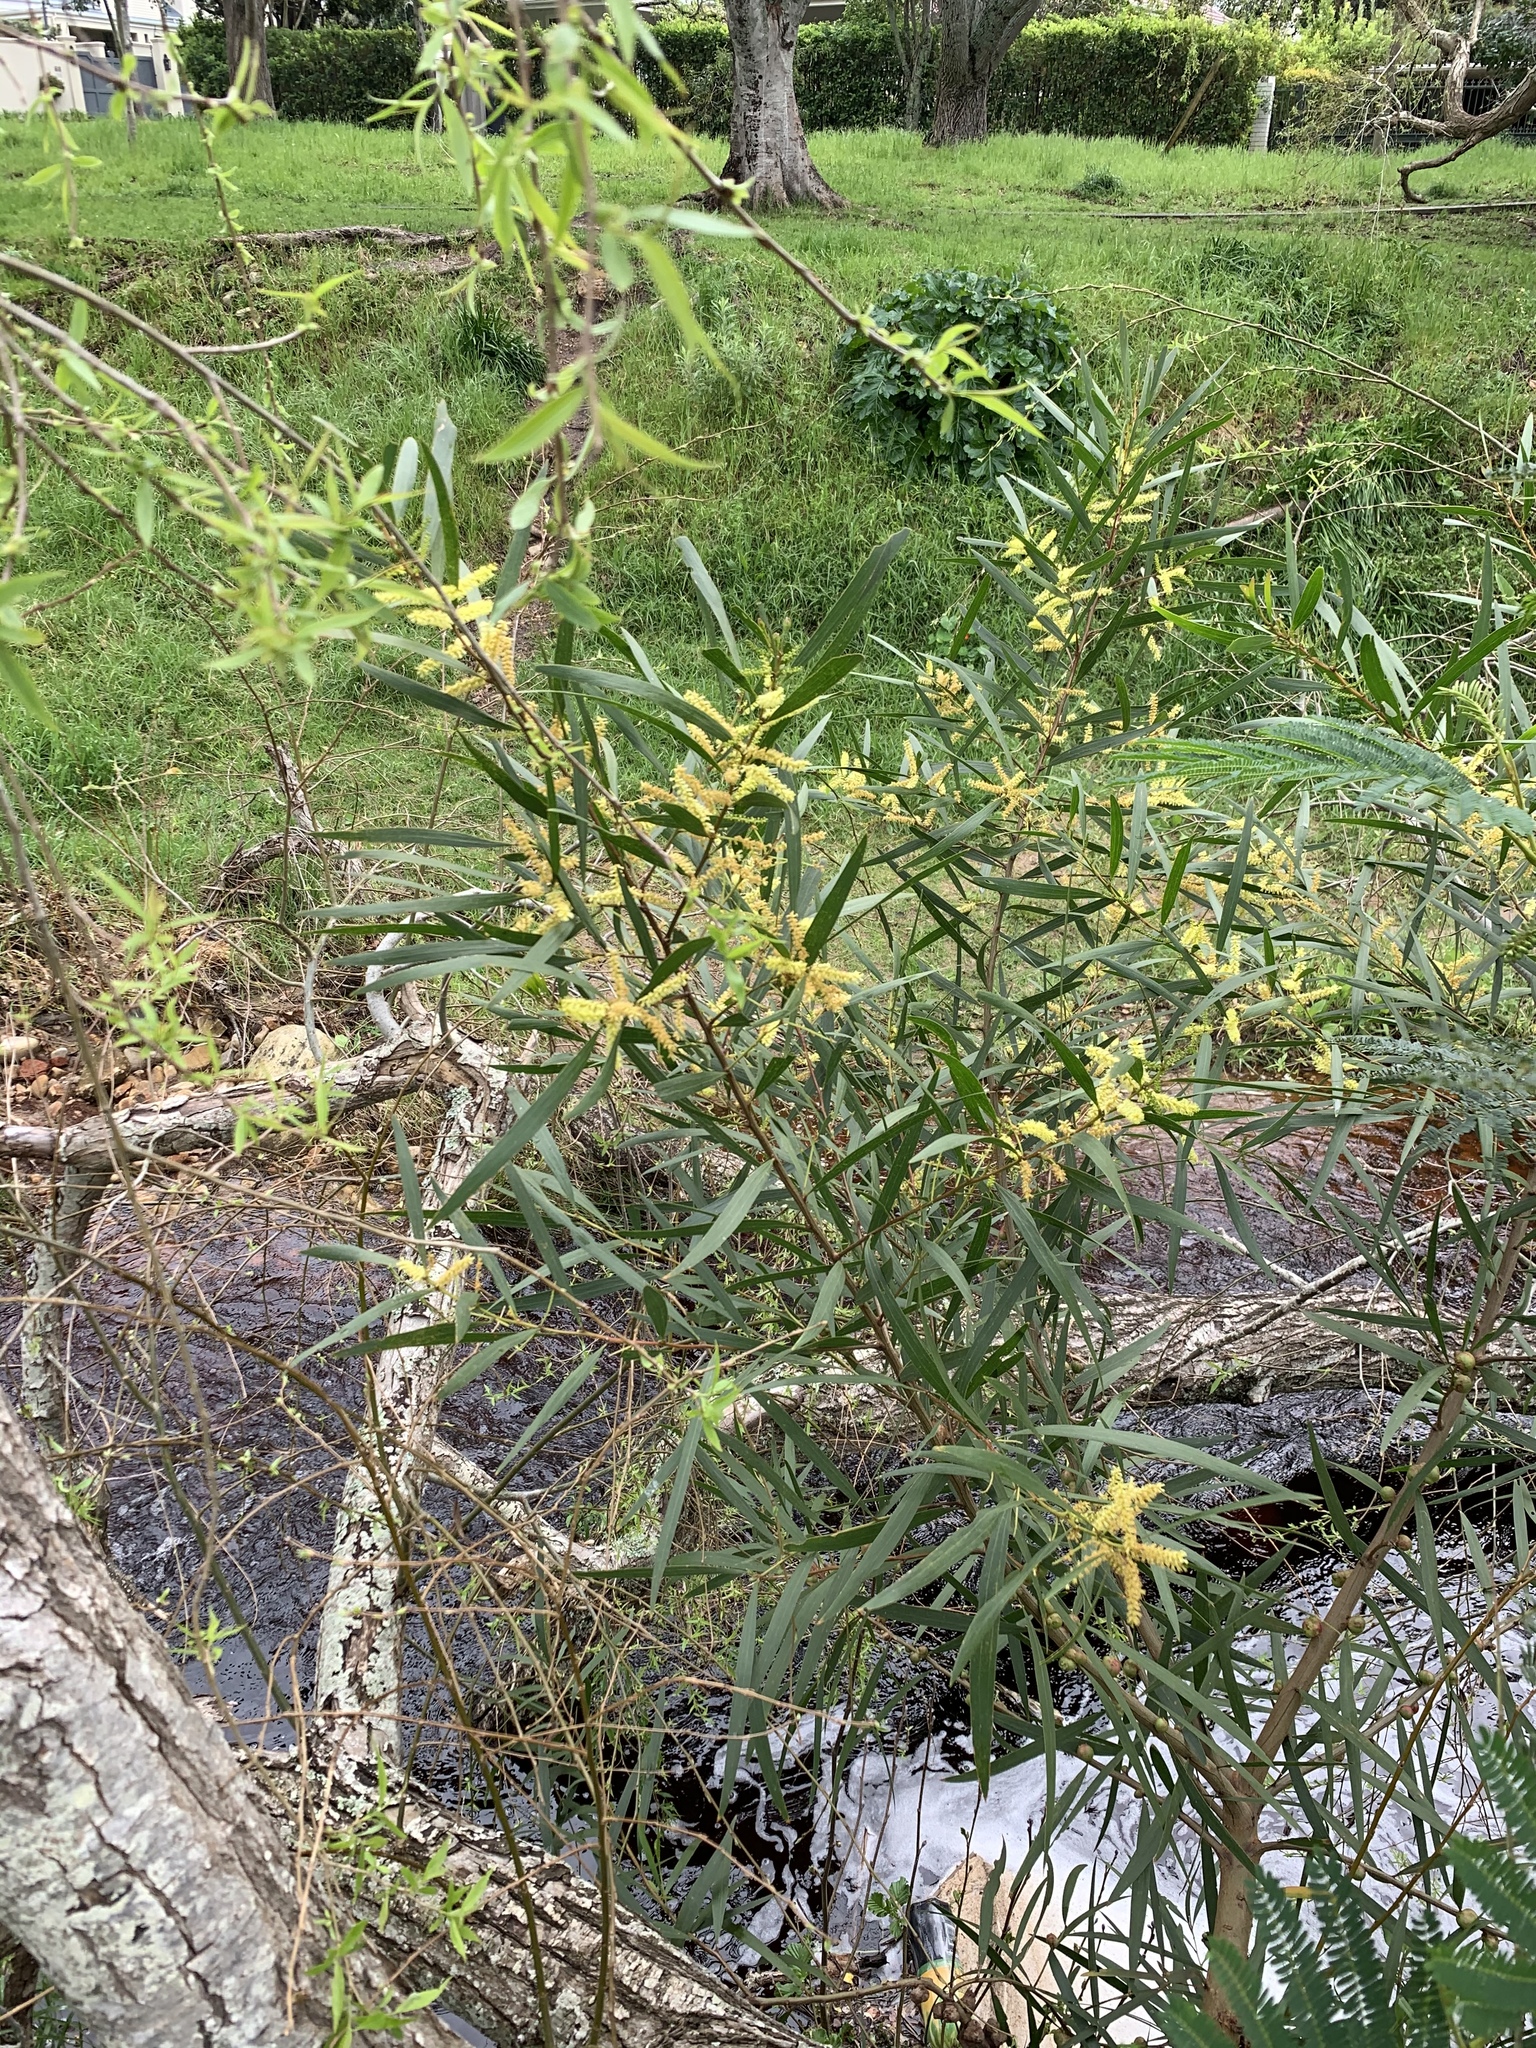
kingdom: Plantae
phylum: Tracheophyta
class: Magnoliopsida
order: Fabales
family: Fabaceae
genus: Acacia
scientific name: Acacia longifolia
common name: Sydney golden wattle
